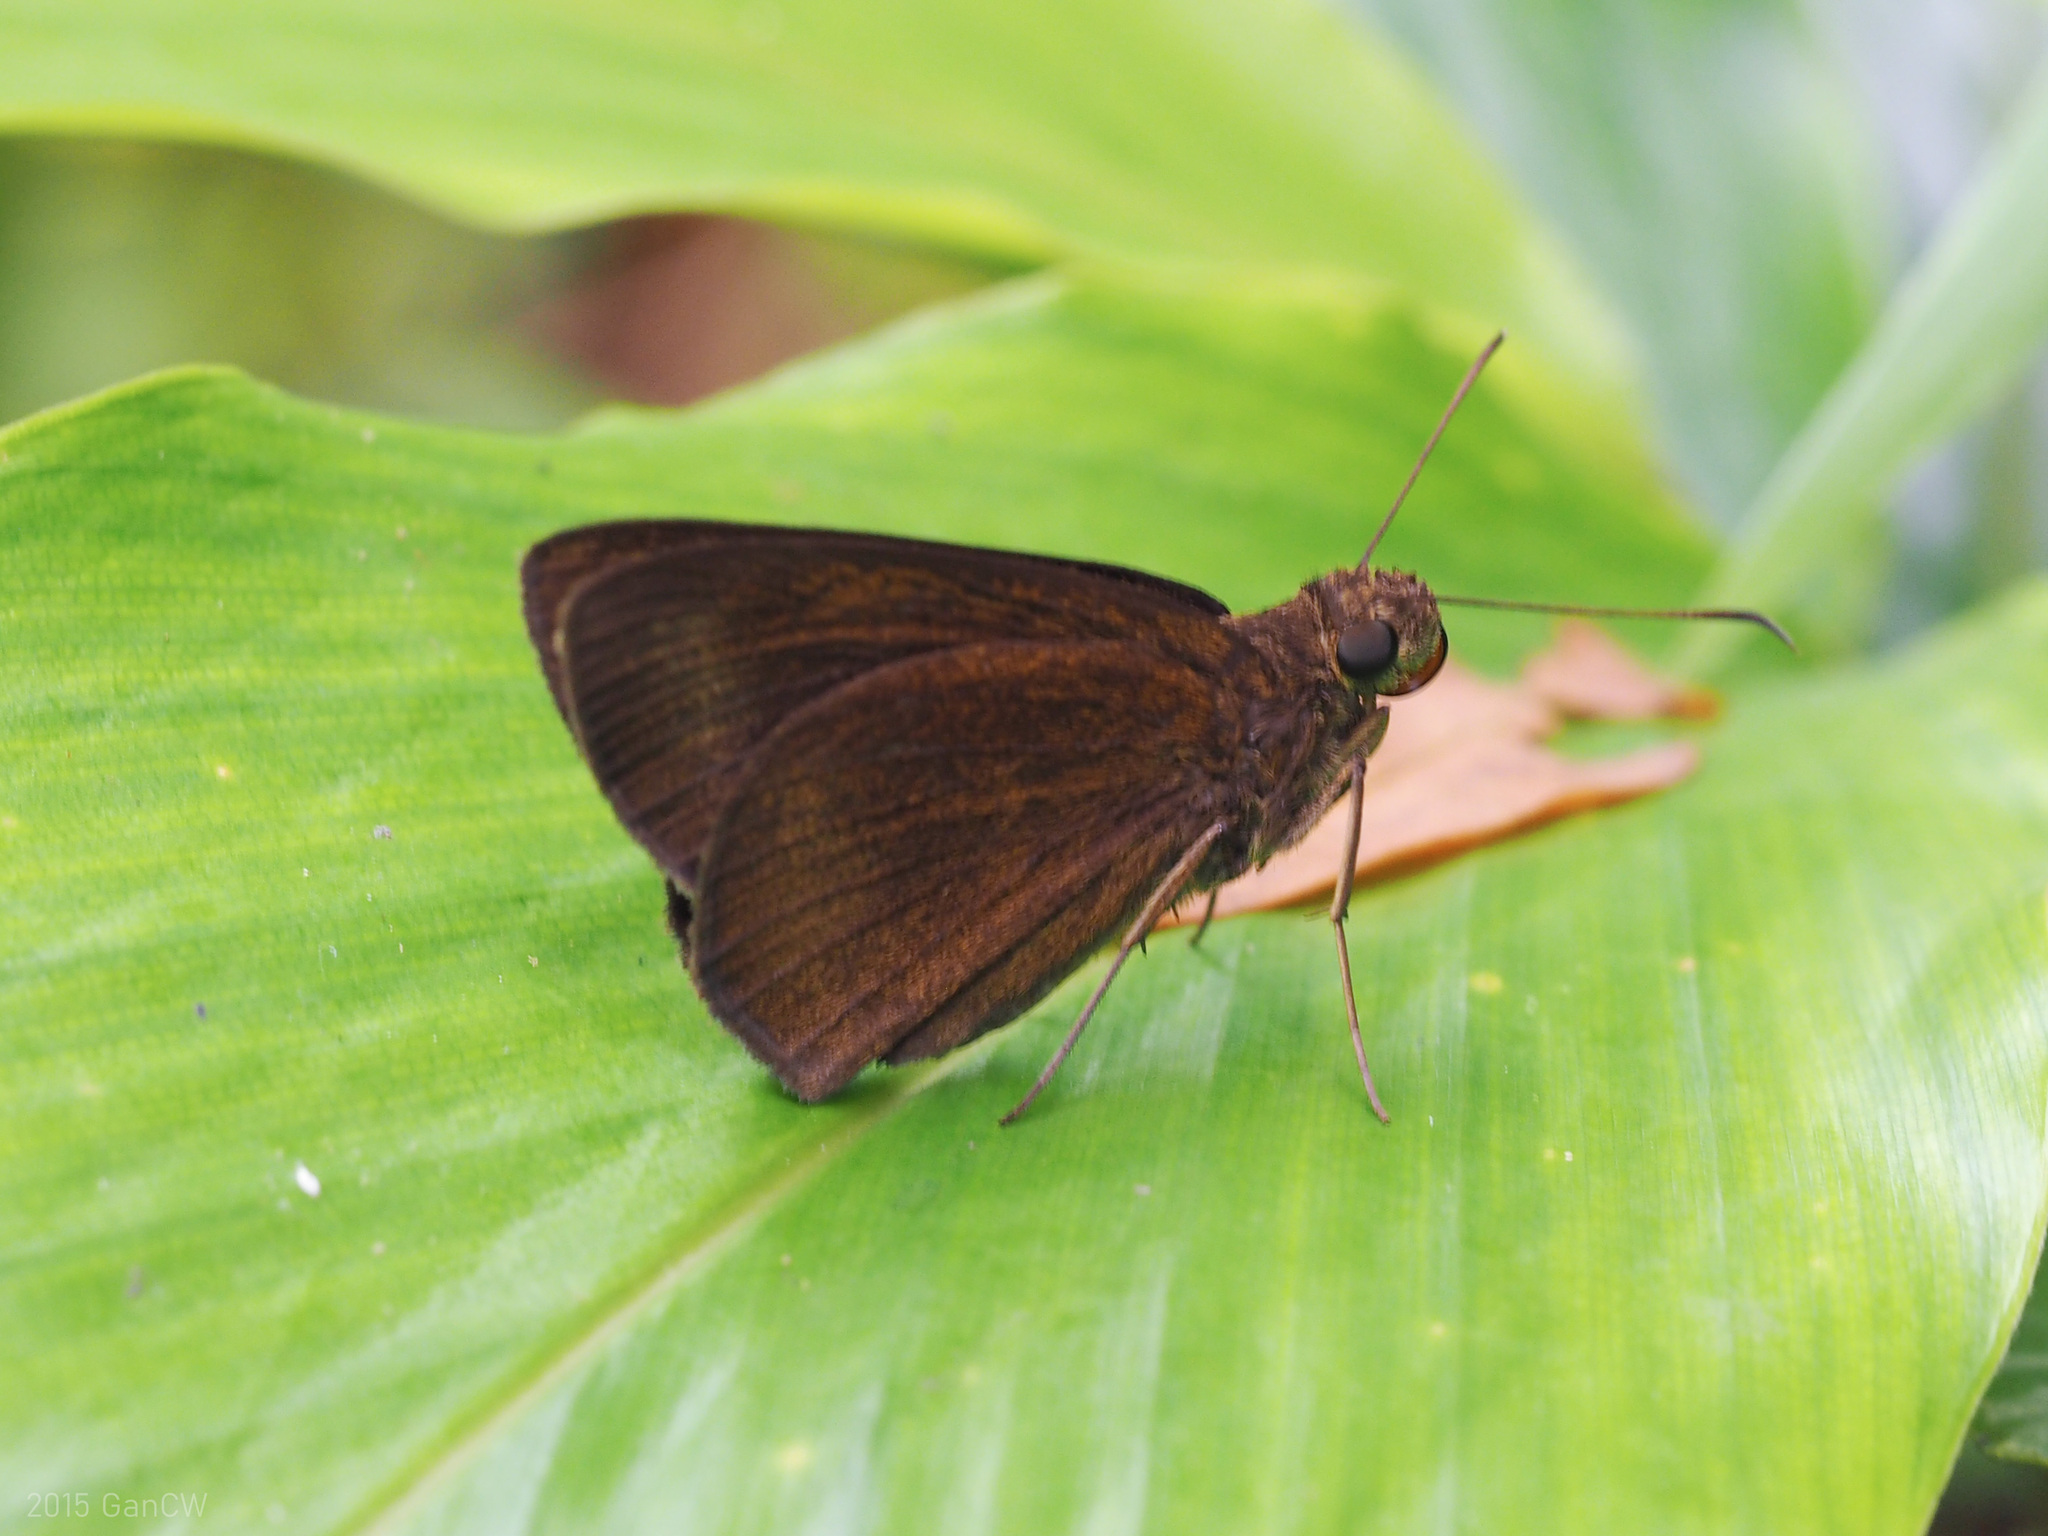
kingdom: Animalia
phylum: Arthropoda
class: Insecta
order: Lepidoptera
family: Hesperiidae
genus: Ancistroides
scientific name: Ancistroides nigrita
